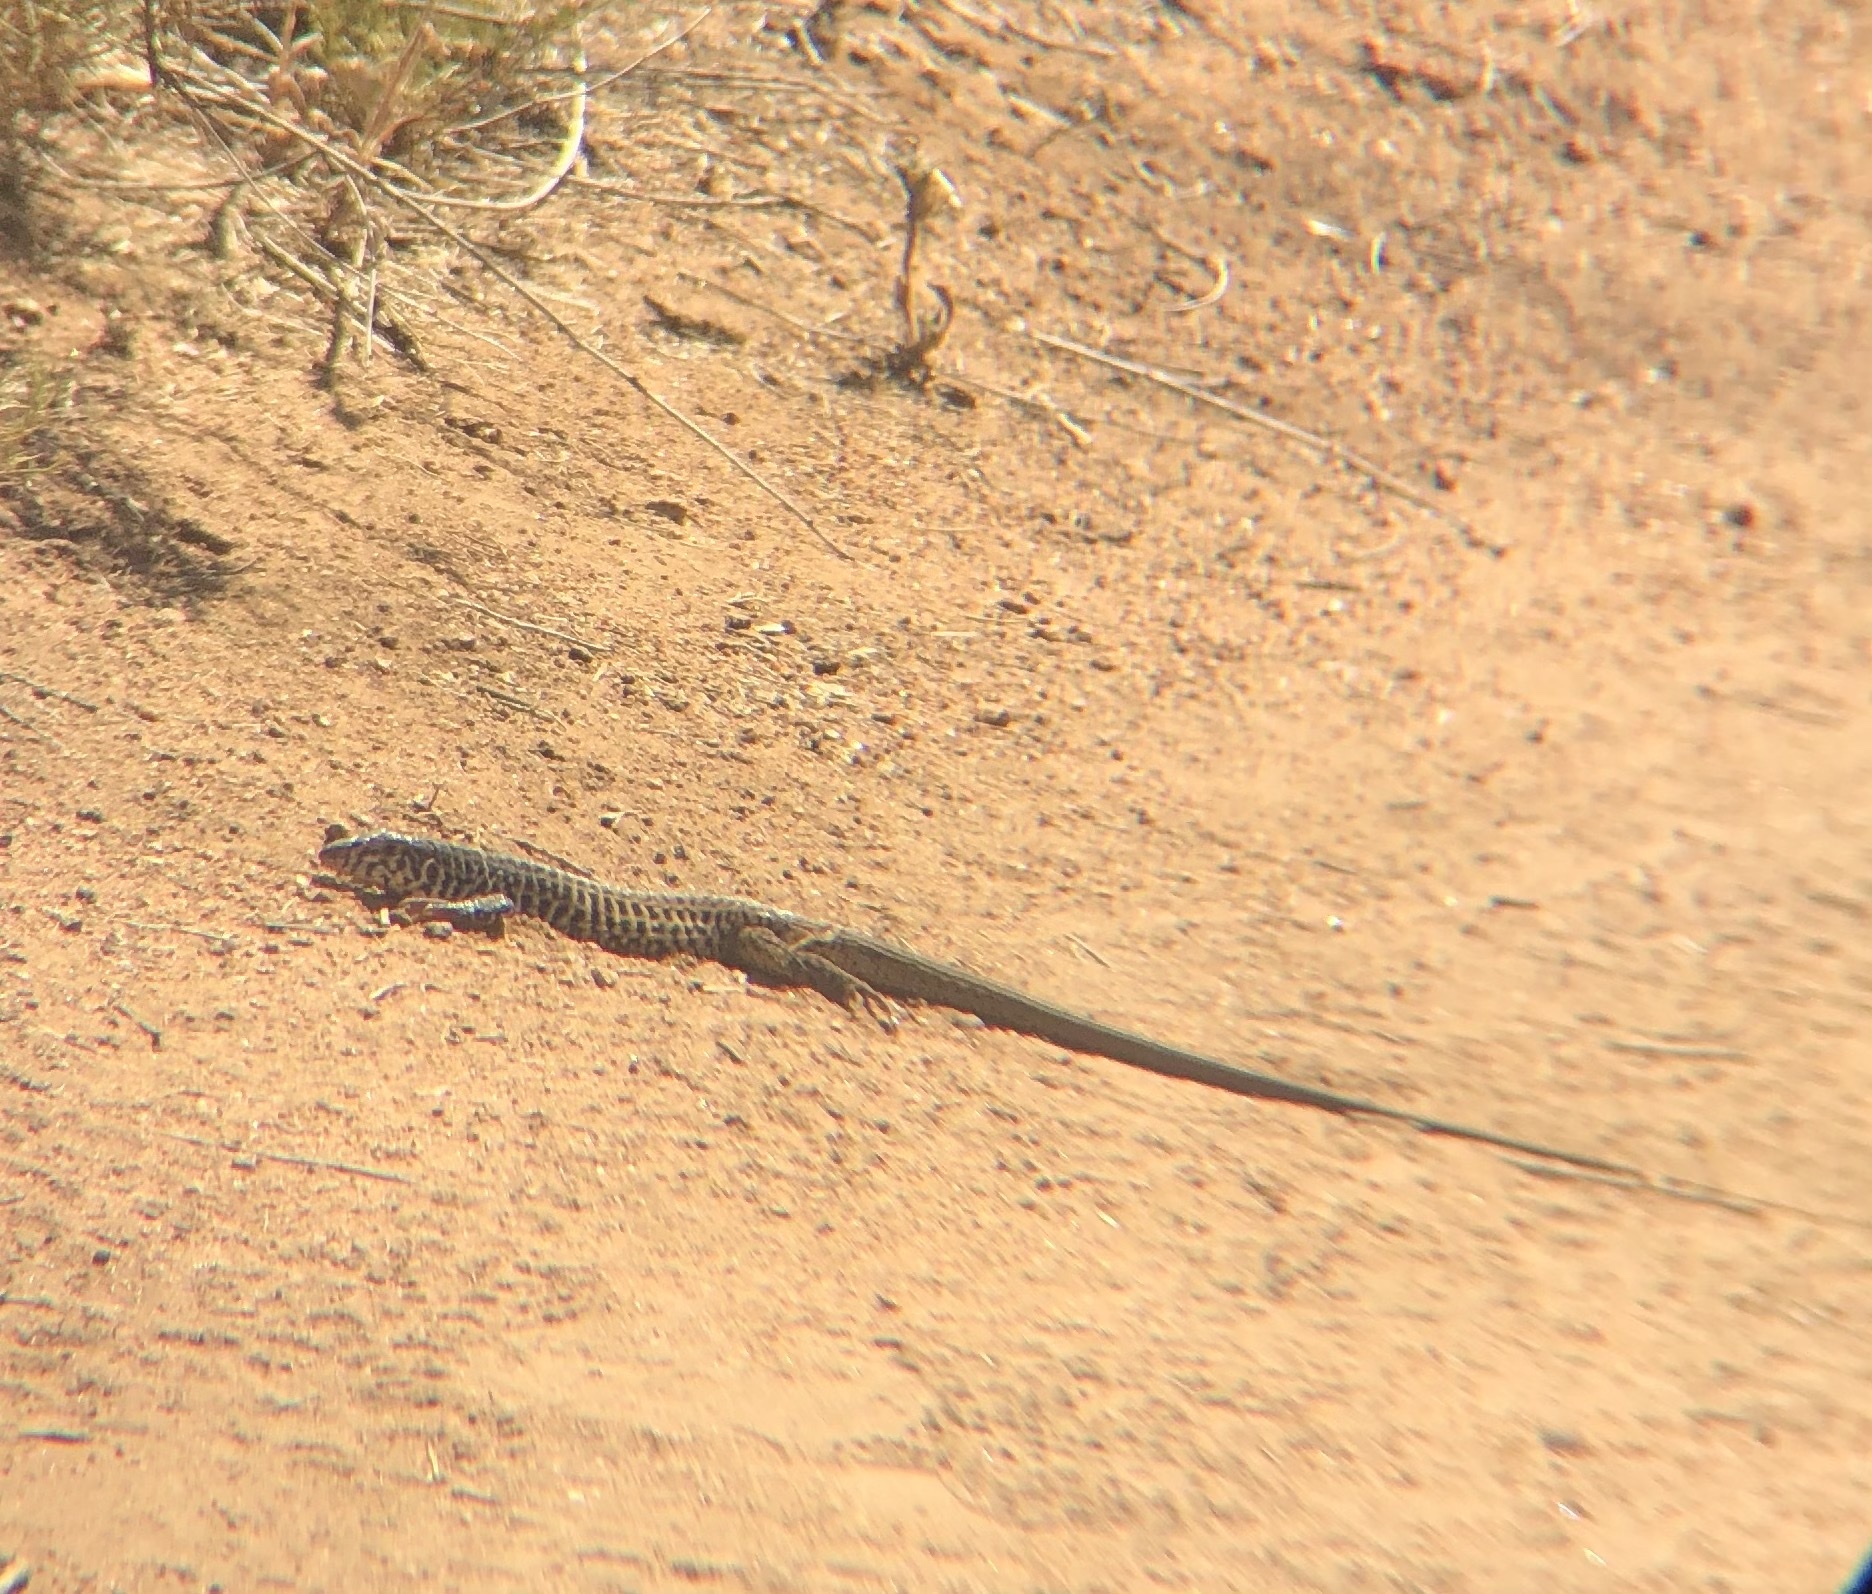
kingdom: Animalia
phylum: Chordata
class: Squamata
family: Teiidae
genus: Aspidoscelis
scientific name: Aspidoscelis tigris
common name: Tiger whiptail
